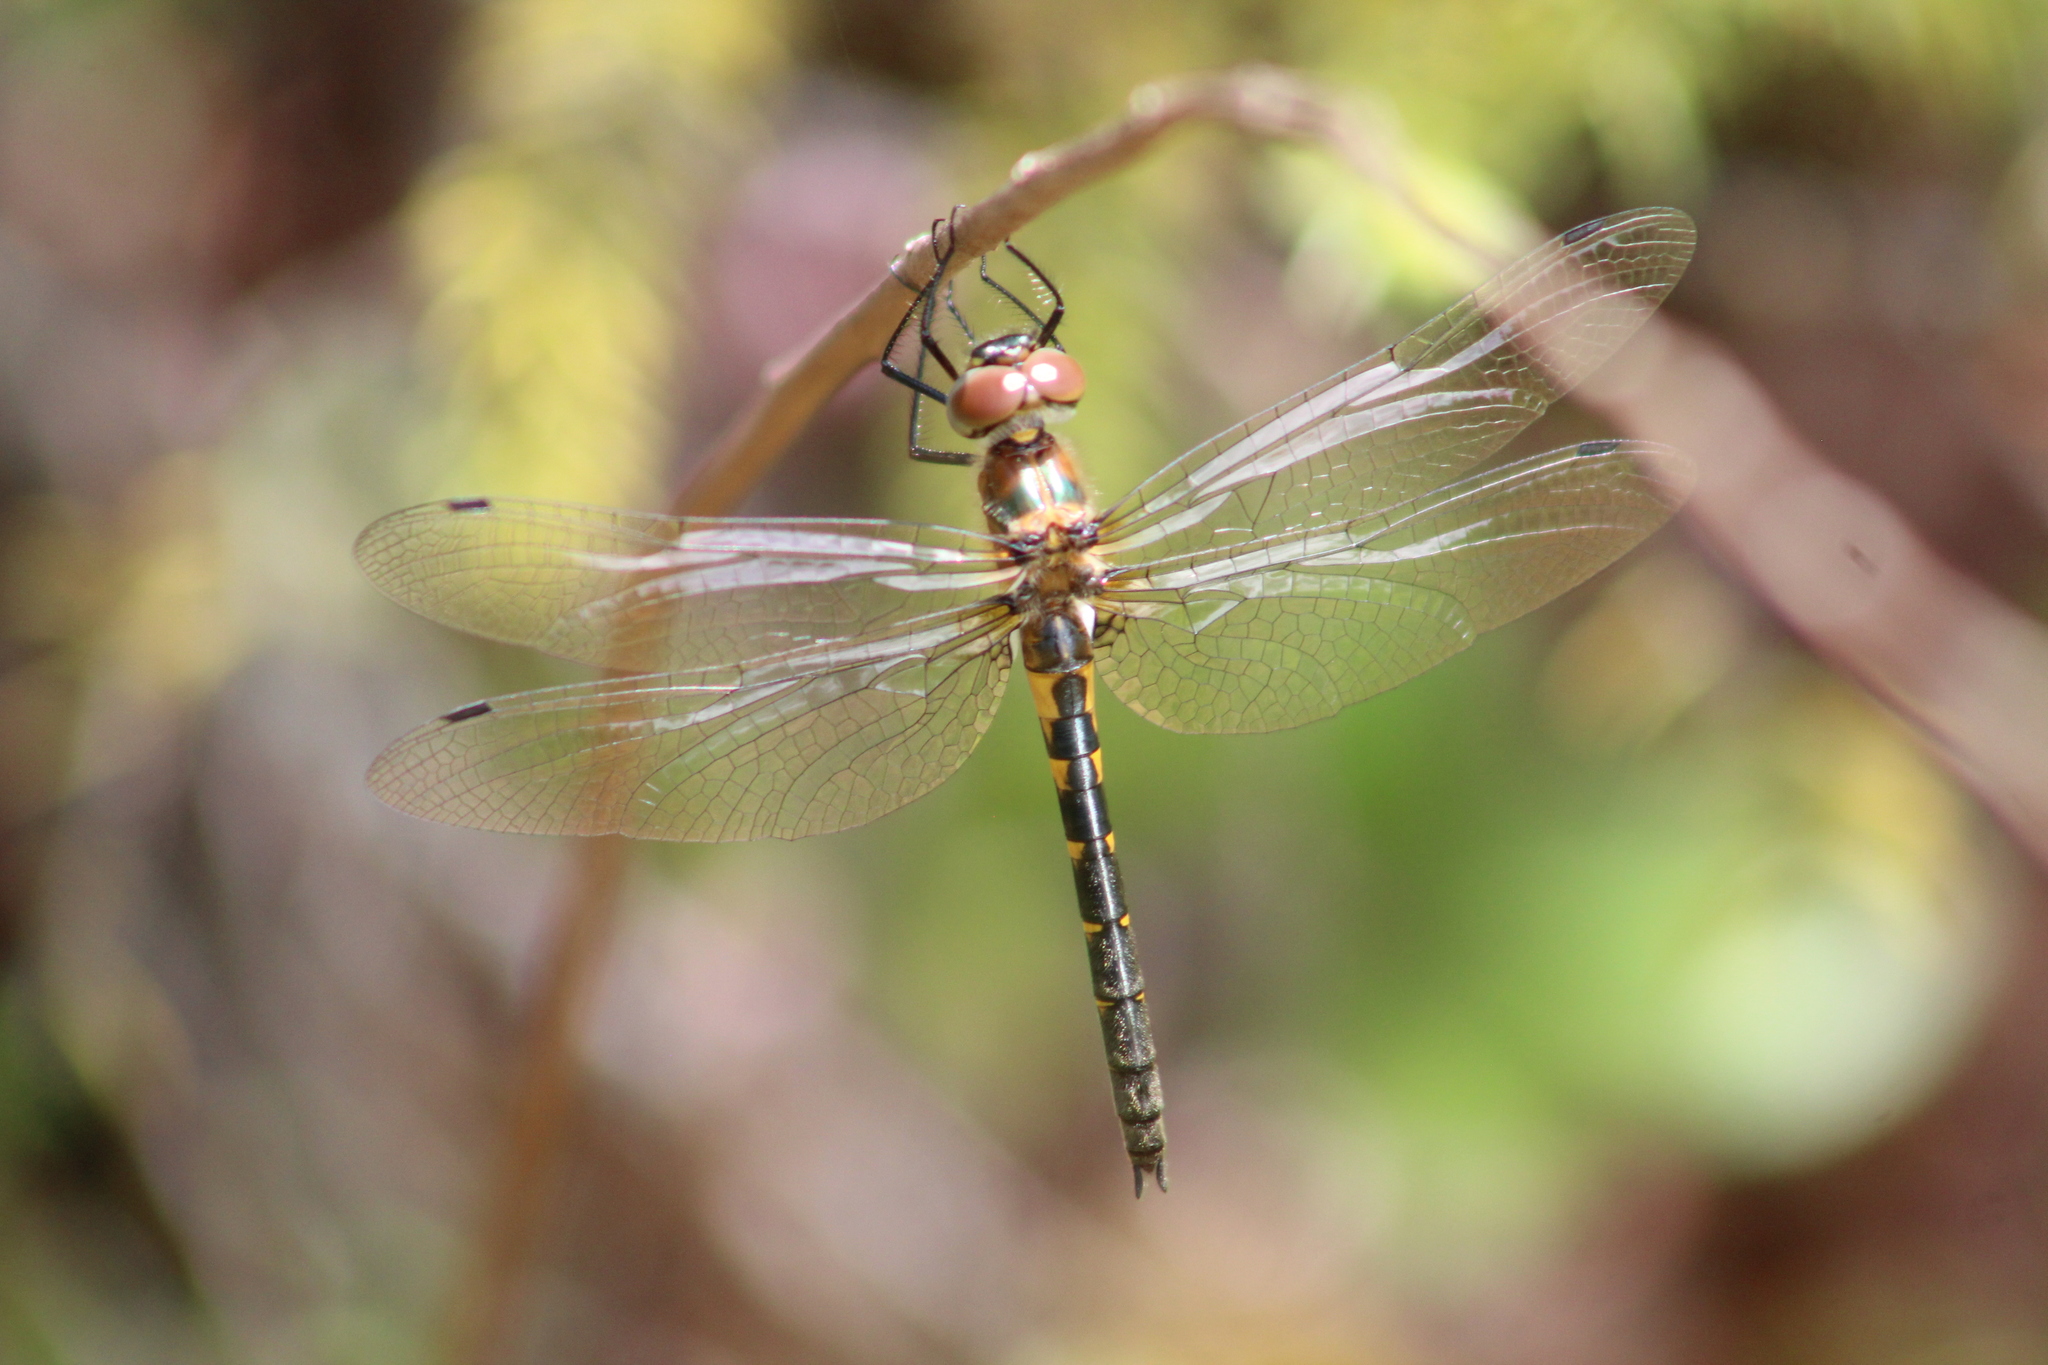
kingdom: Animalia
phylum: Arthropoda
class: Insecta
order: Odonata
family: Corduliidae
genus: Dorocordulia
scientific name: Dorocordulia lepida
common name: Petite emerald
